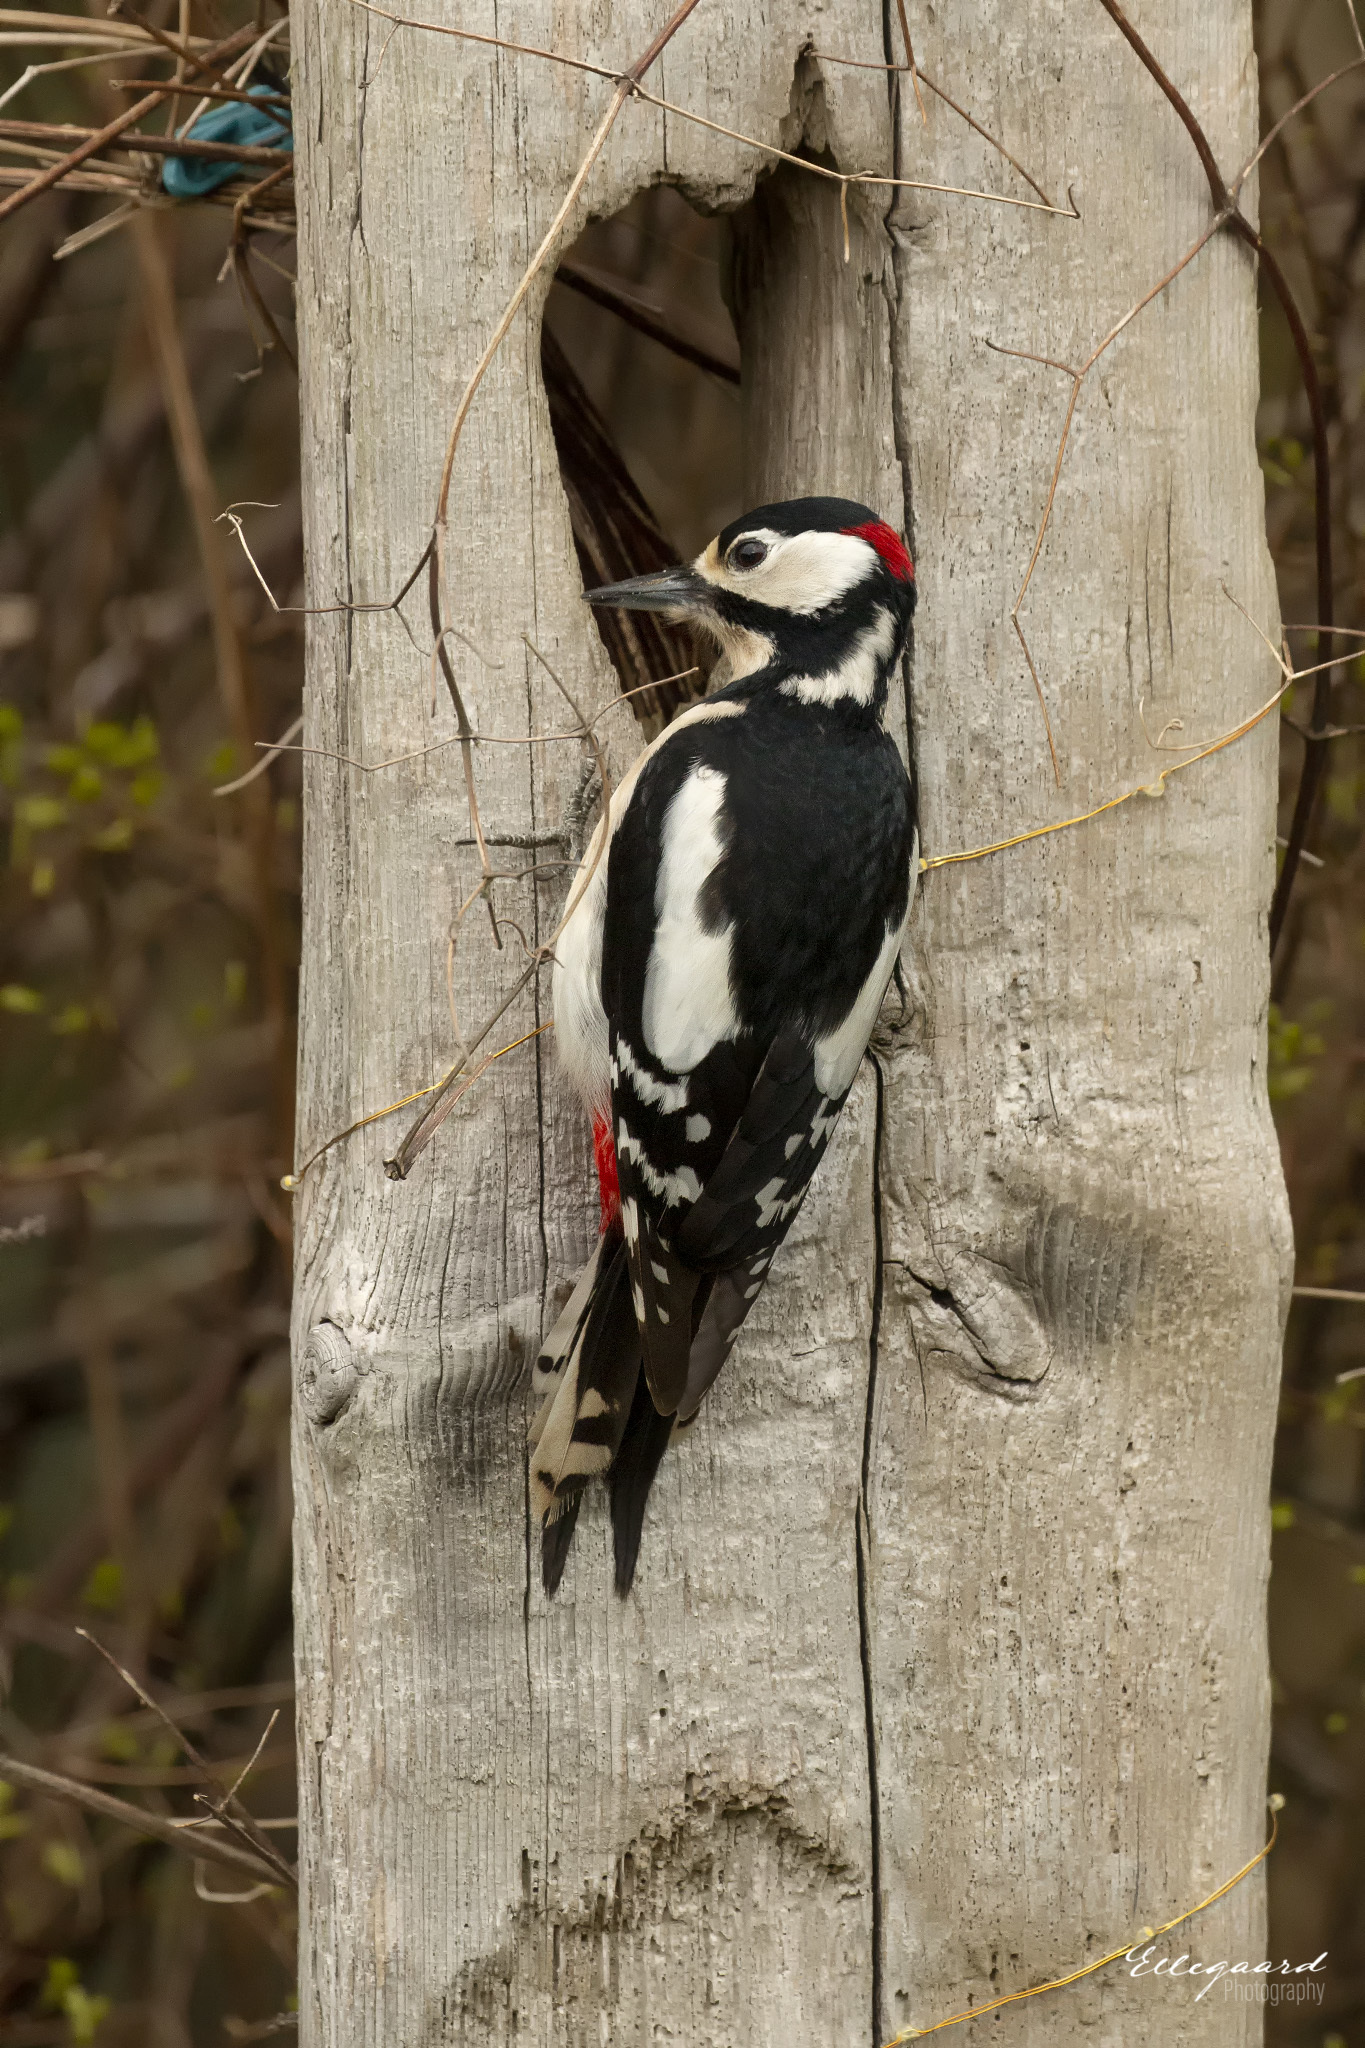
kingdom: Animalia
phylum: Chordata
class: Aves
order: Piciformes
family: Picidae
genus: Dendrocopos
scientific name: Dendrocopos major
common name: Great spotted woodpecker
